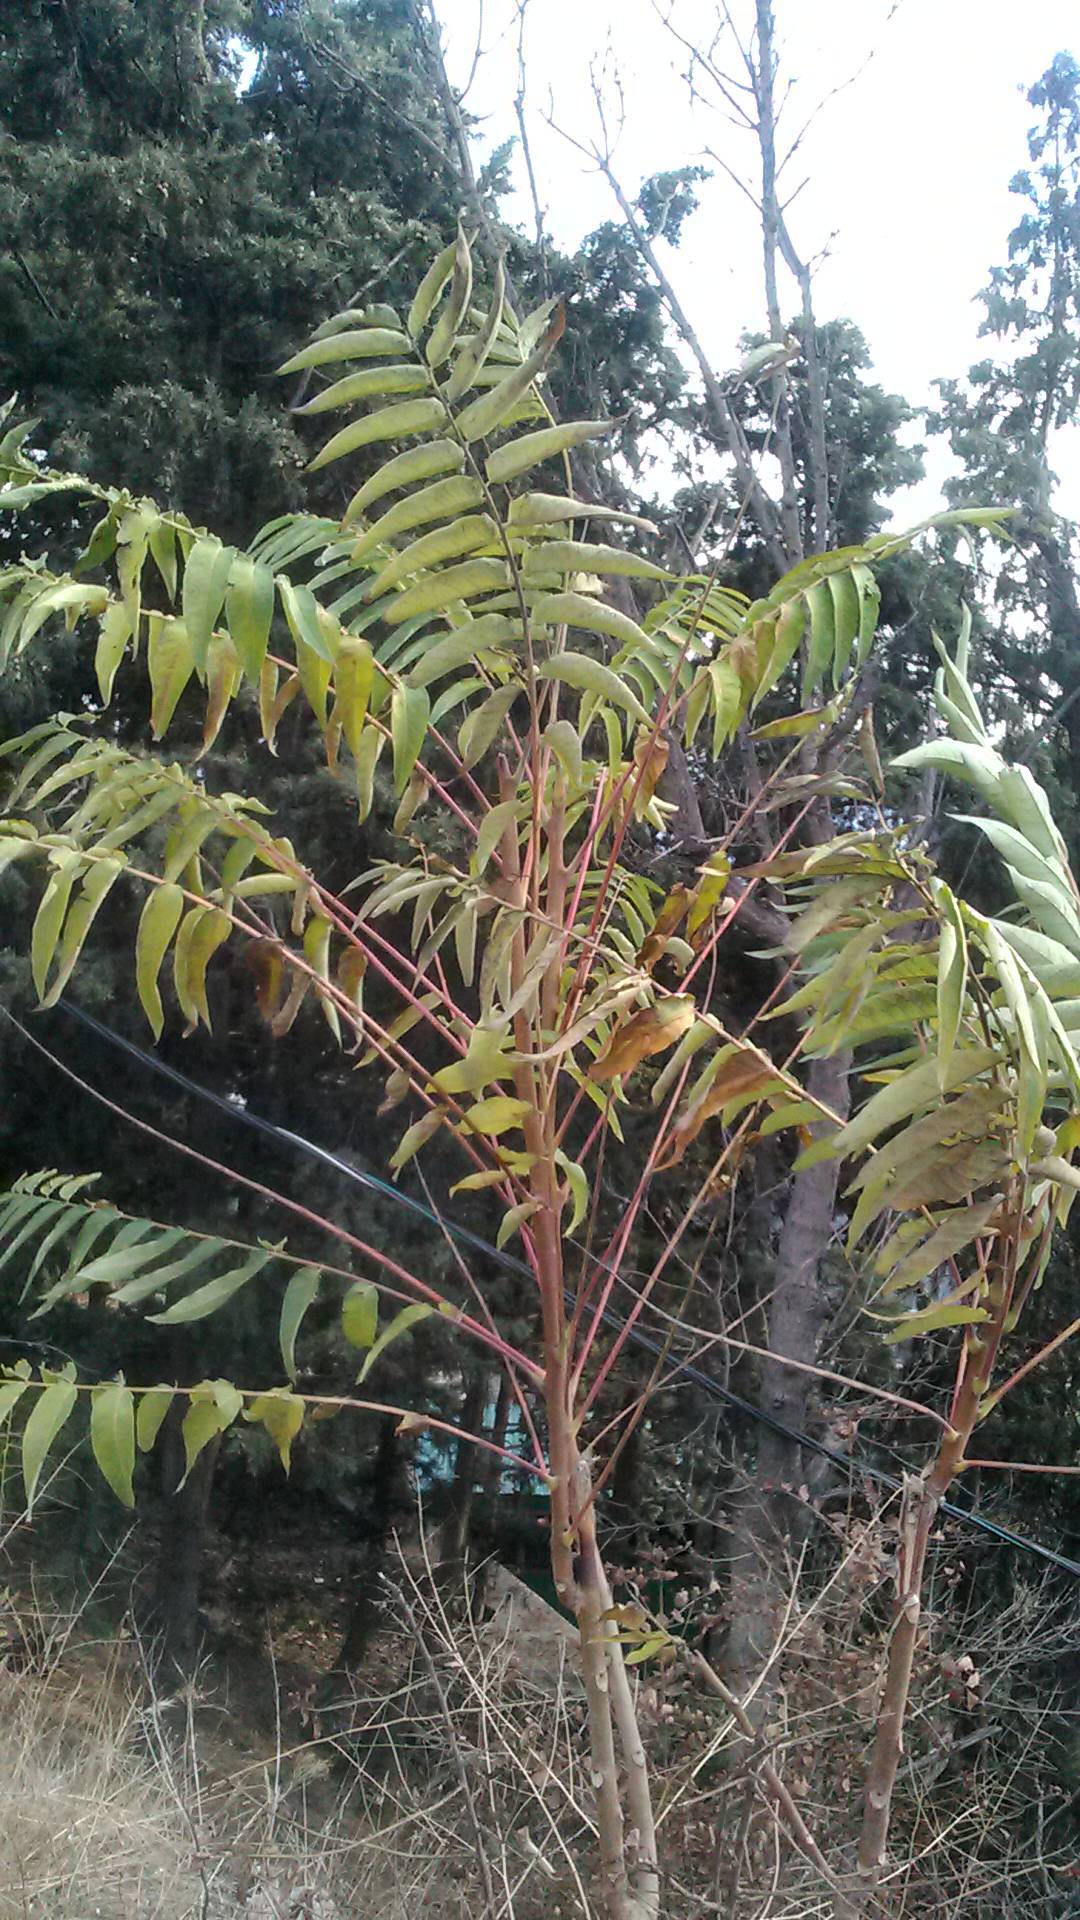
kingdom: Plantae
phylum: Tracheophyta
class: Magnoliopsida
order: Sapindales
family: Simaroubaceae
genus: Ailanthus
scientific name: Ailanthus altissima
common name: Tree-of-heaven
